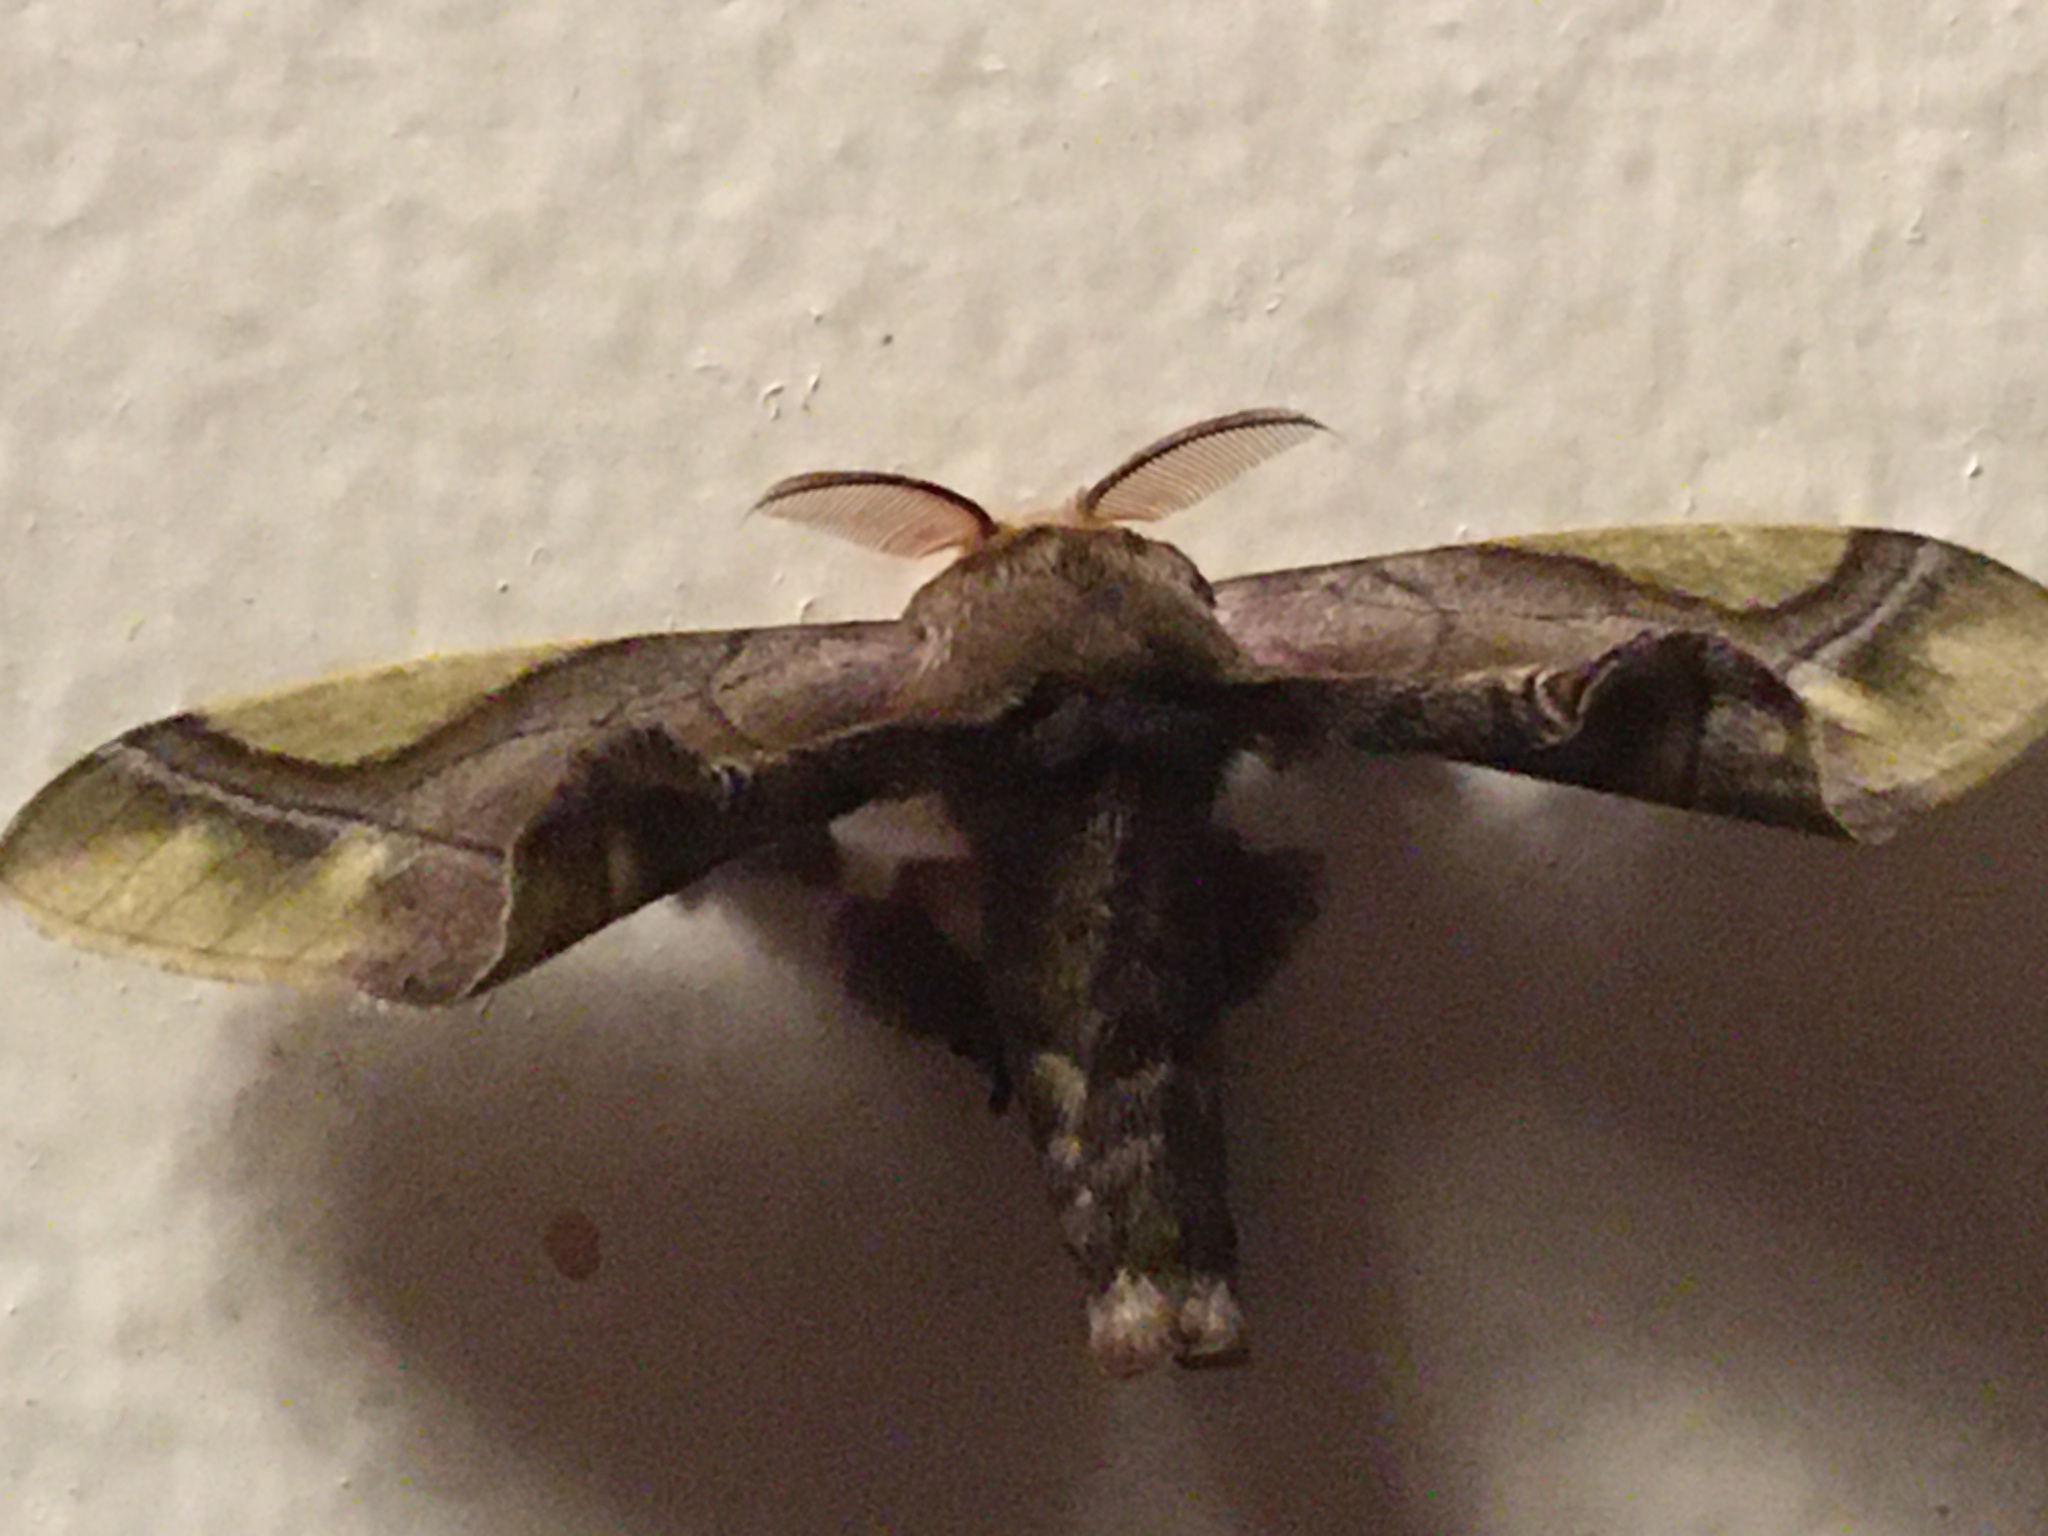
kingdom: Animalia
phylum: Arthropoda
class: Insecta
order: Lepidoptera
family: Bombycidae
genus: Epia
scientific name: Epia muscosa
